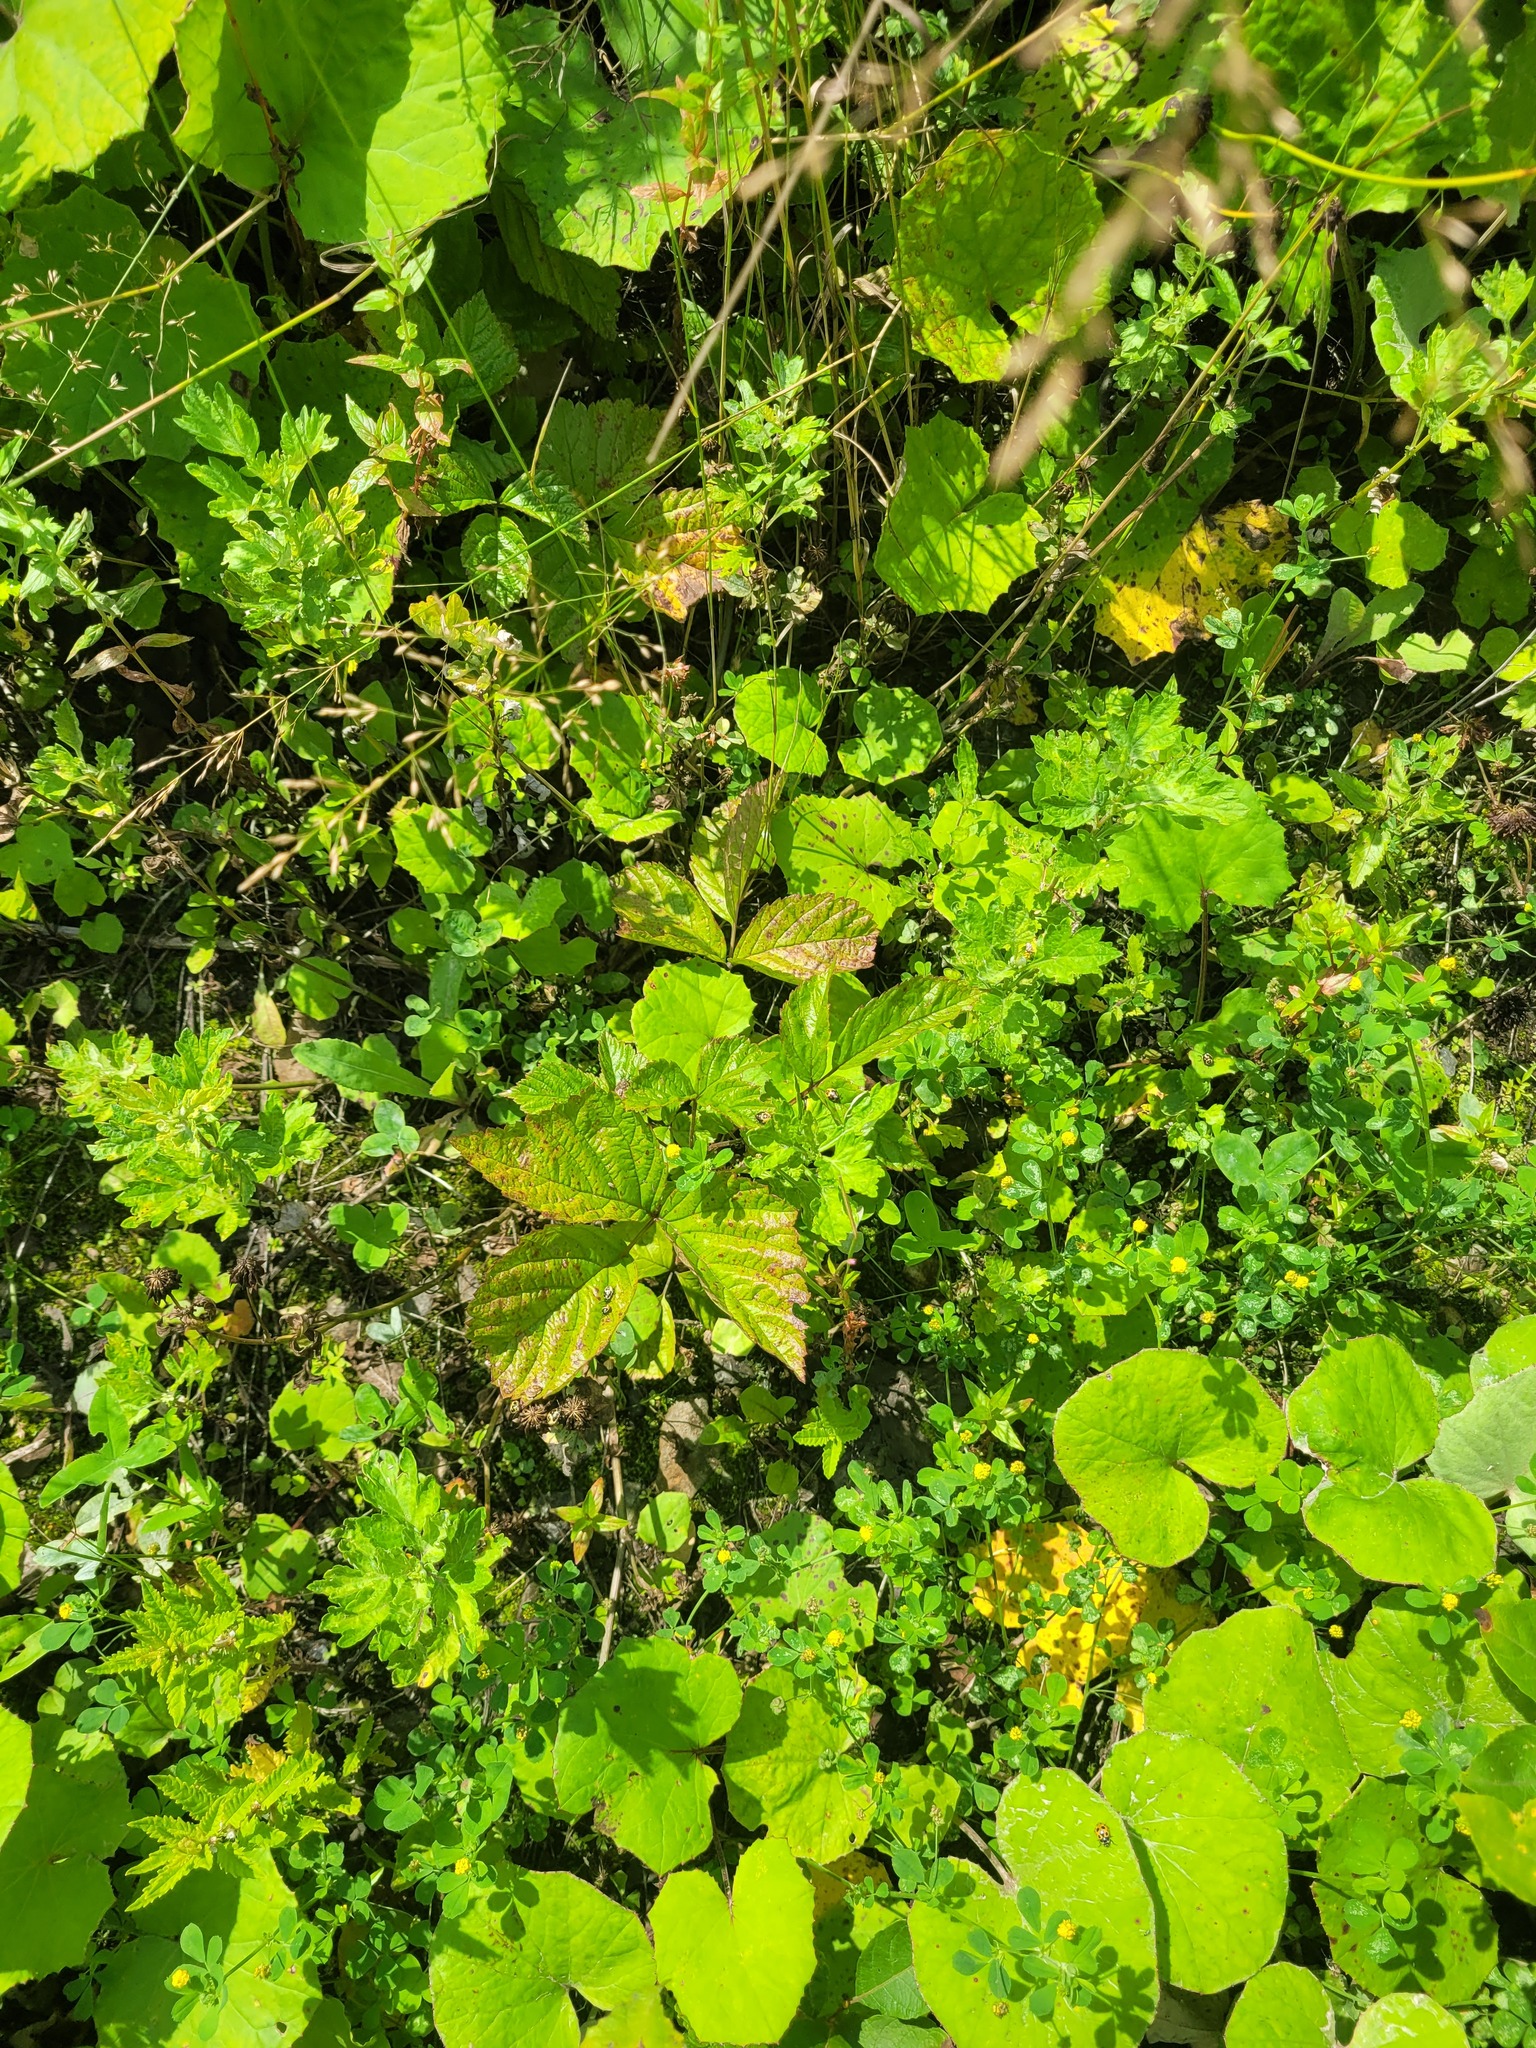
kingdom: Plantae
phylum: Tracheophyta
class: Magnoliopsida
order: Rosales
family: Rosaceae
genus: Rubus
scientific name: Rubus saxatilis
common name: Stone bramble
